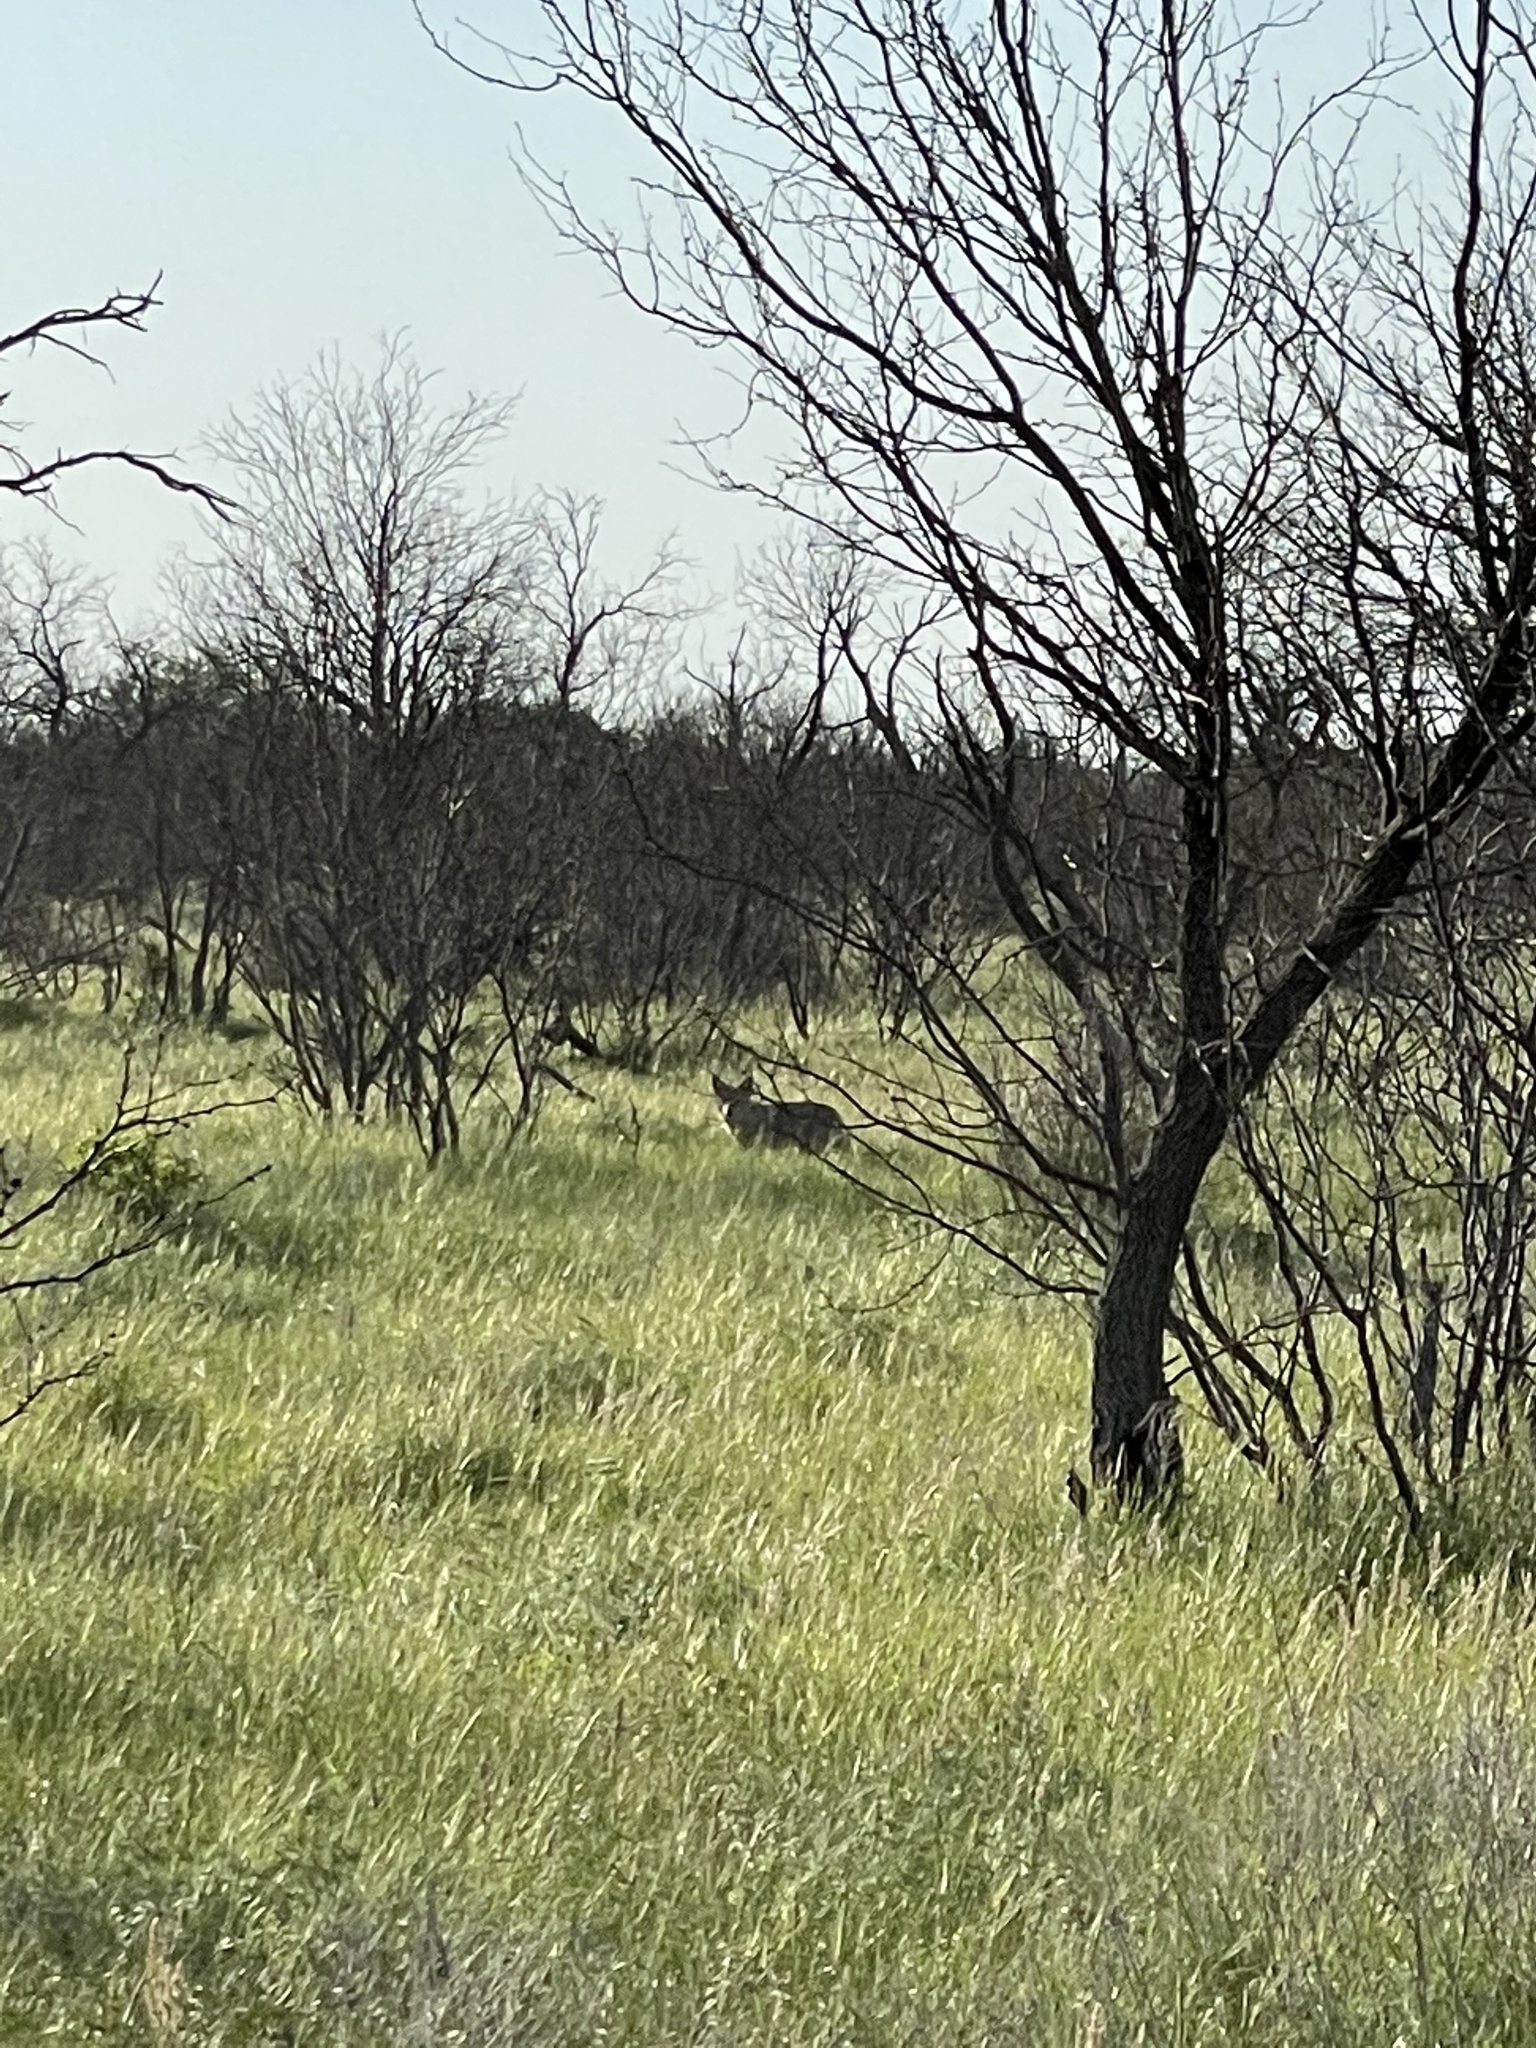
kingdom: Animalia
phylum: Chordata
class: Mammalia
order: Carnivora
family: Canidae
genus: Canis
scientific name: Canis latrans
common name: Coyote
